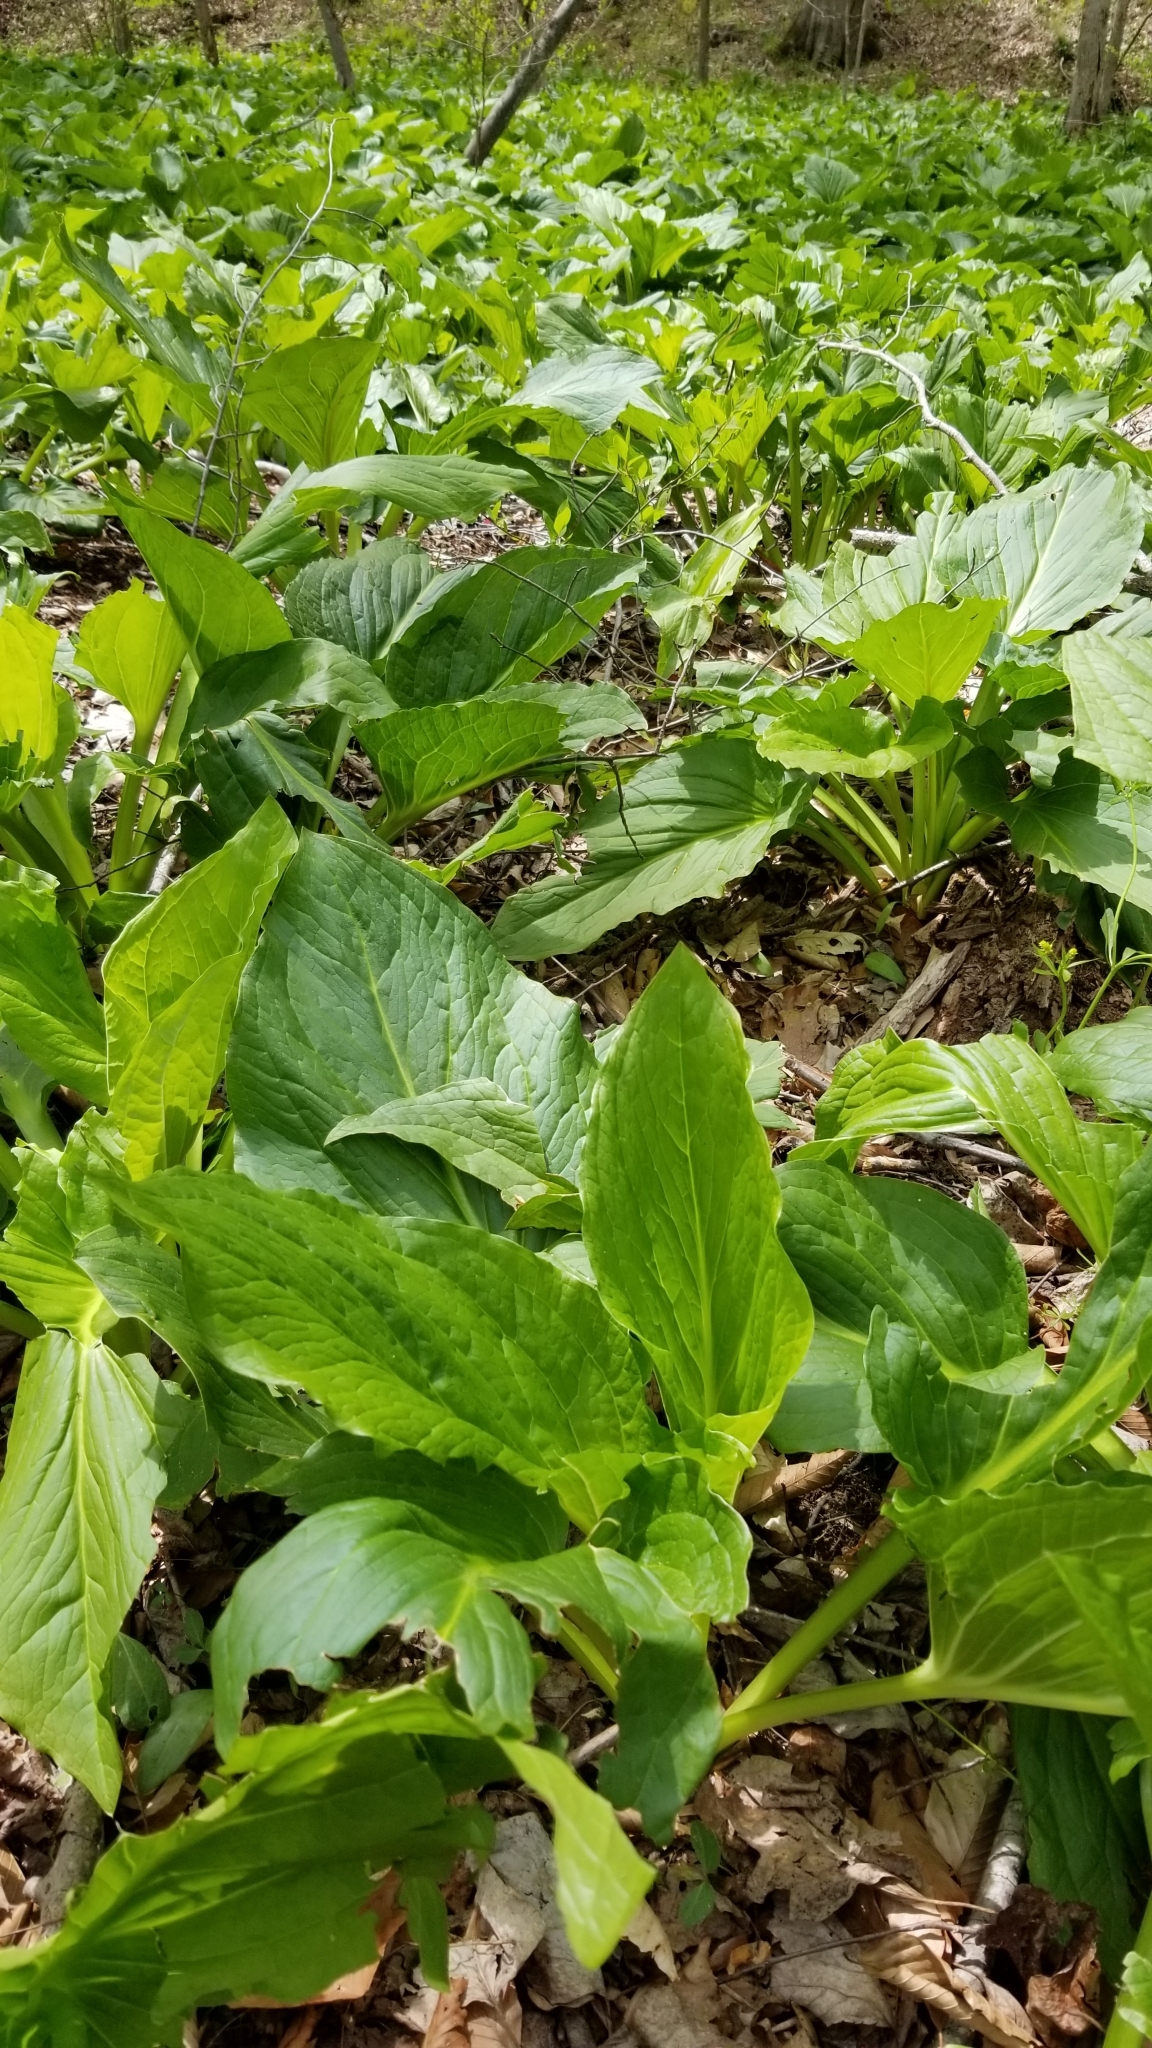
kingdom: Plantae
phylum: Tracheophyta
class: Liliopsida
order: Alismatales
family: Araceae
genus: Symplocarpus
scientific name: Symplocarpus foetidus
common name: Eastern skunk cabbage
